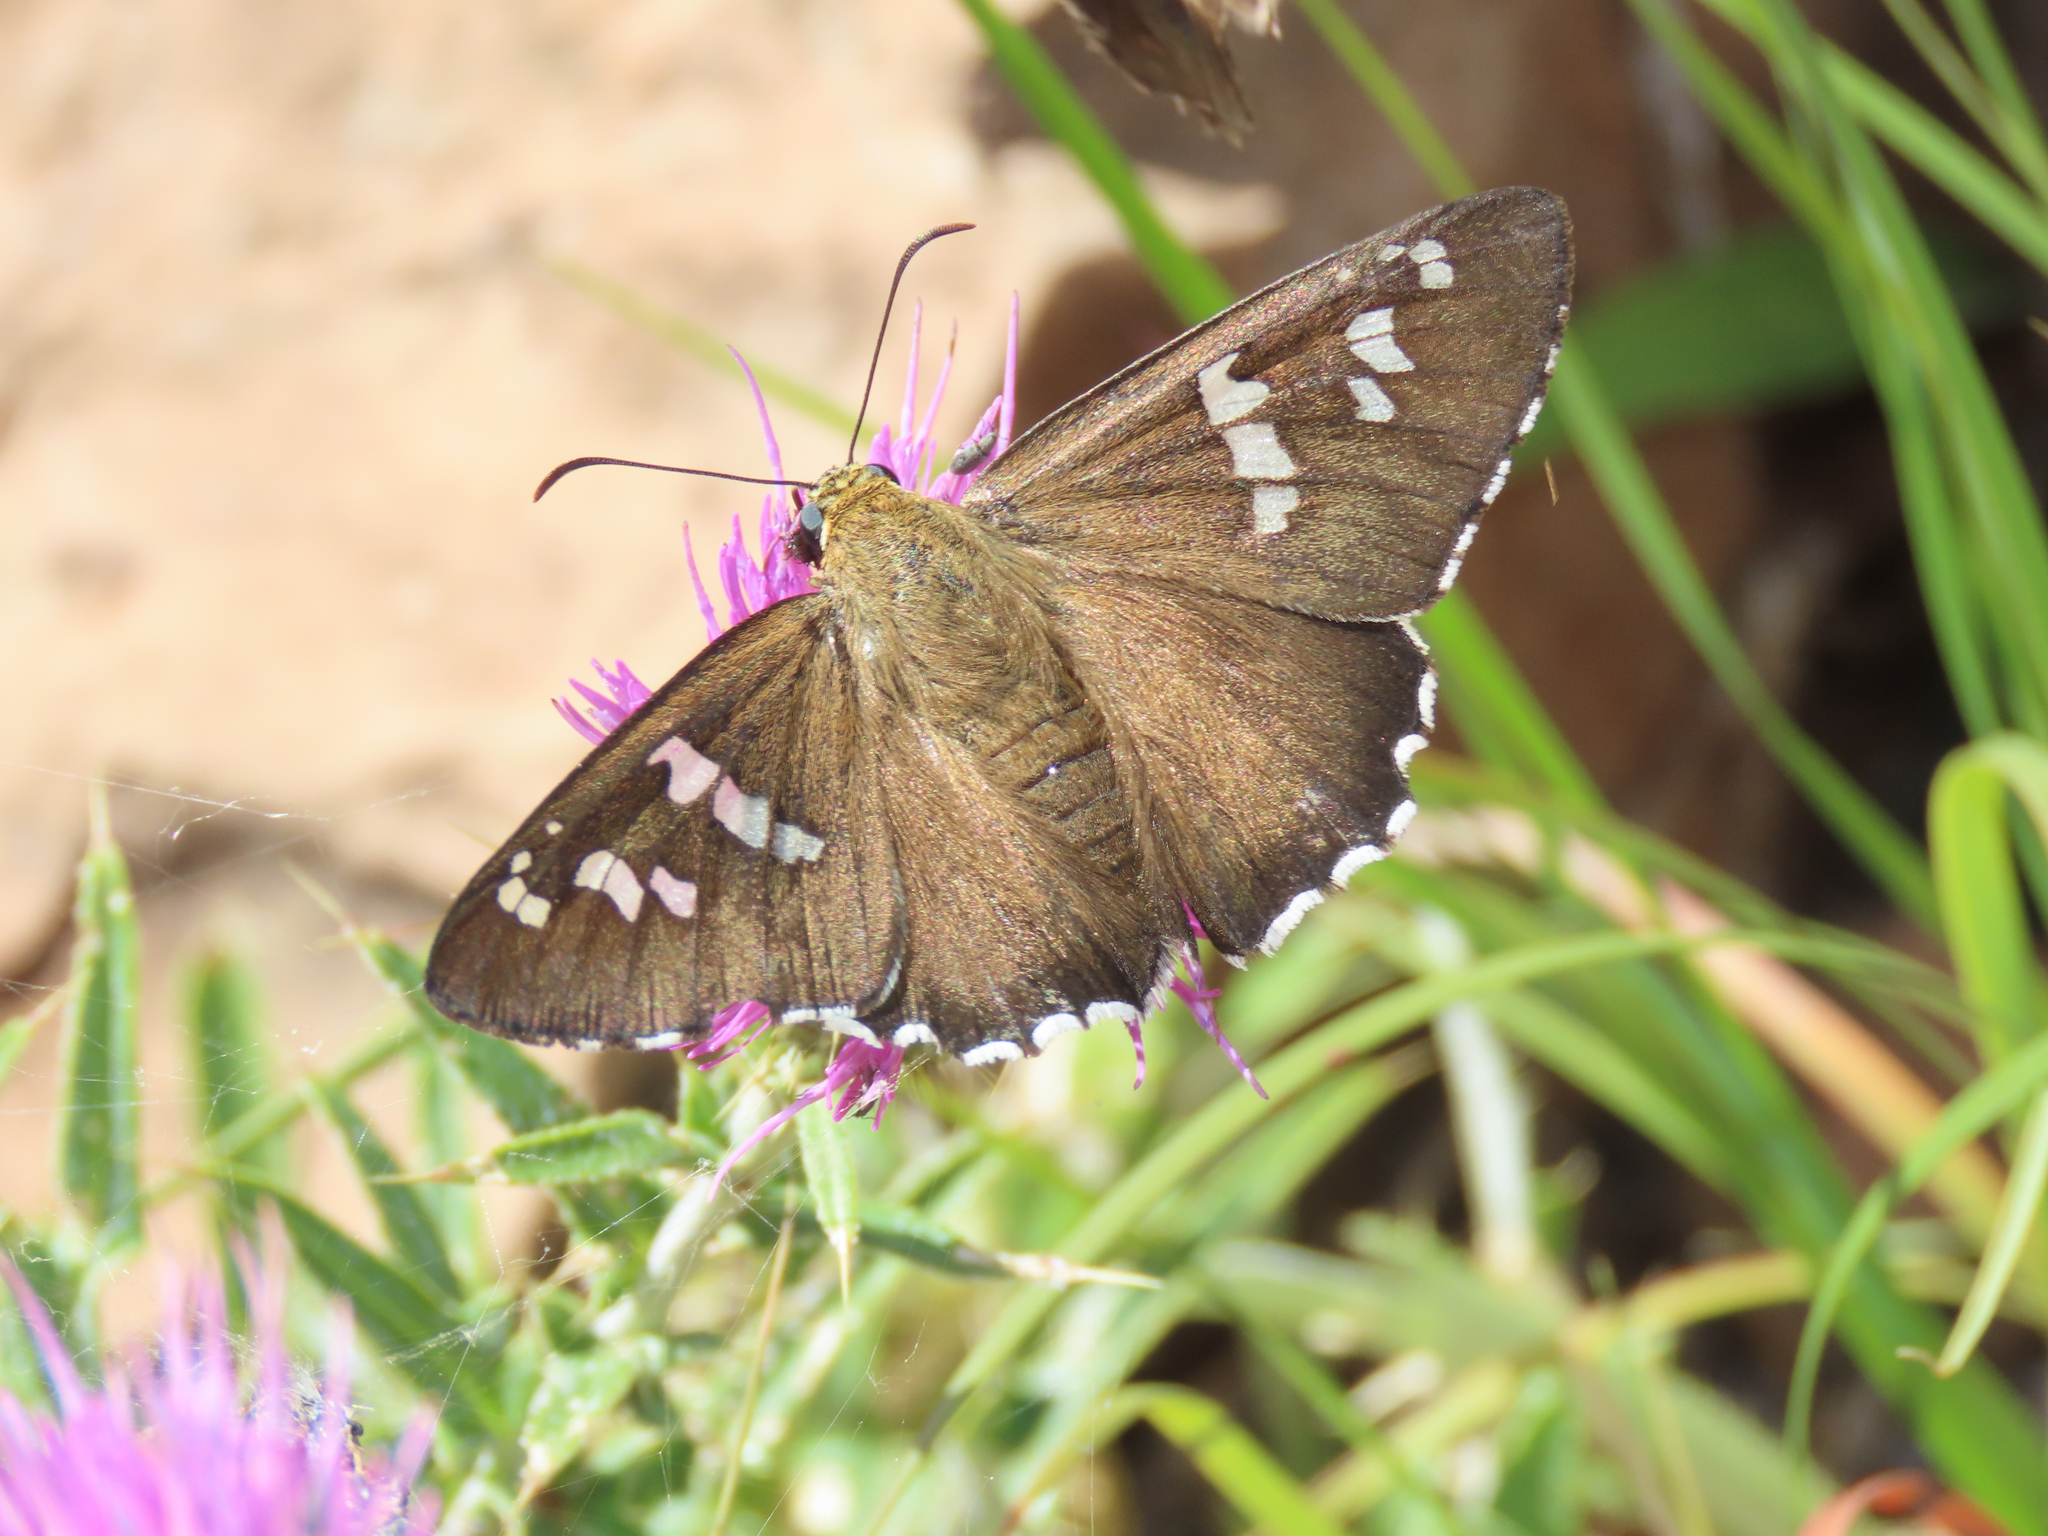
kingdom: Animalia
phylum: Arthropoda
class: Insecta
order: Lepidoptera
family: Hesperiidae
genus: Pyrrhopyge
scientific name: Pyrrhopyge araxes
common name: Dull firetip
